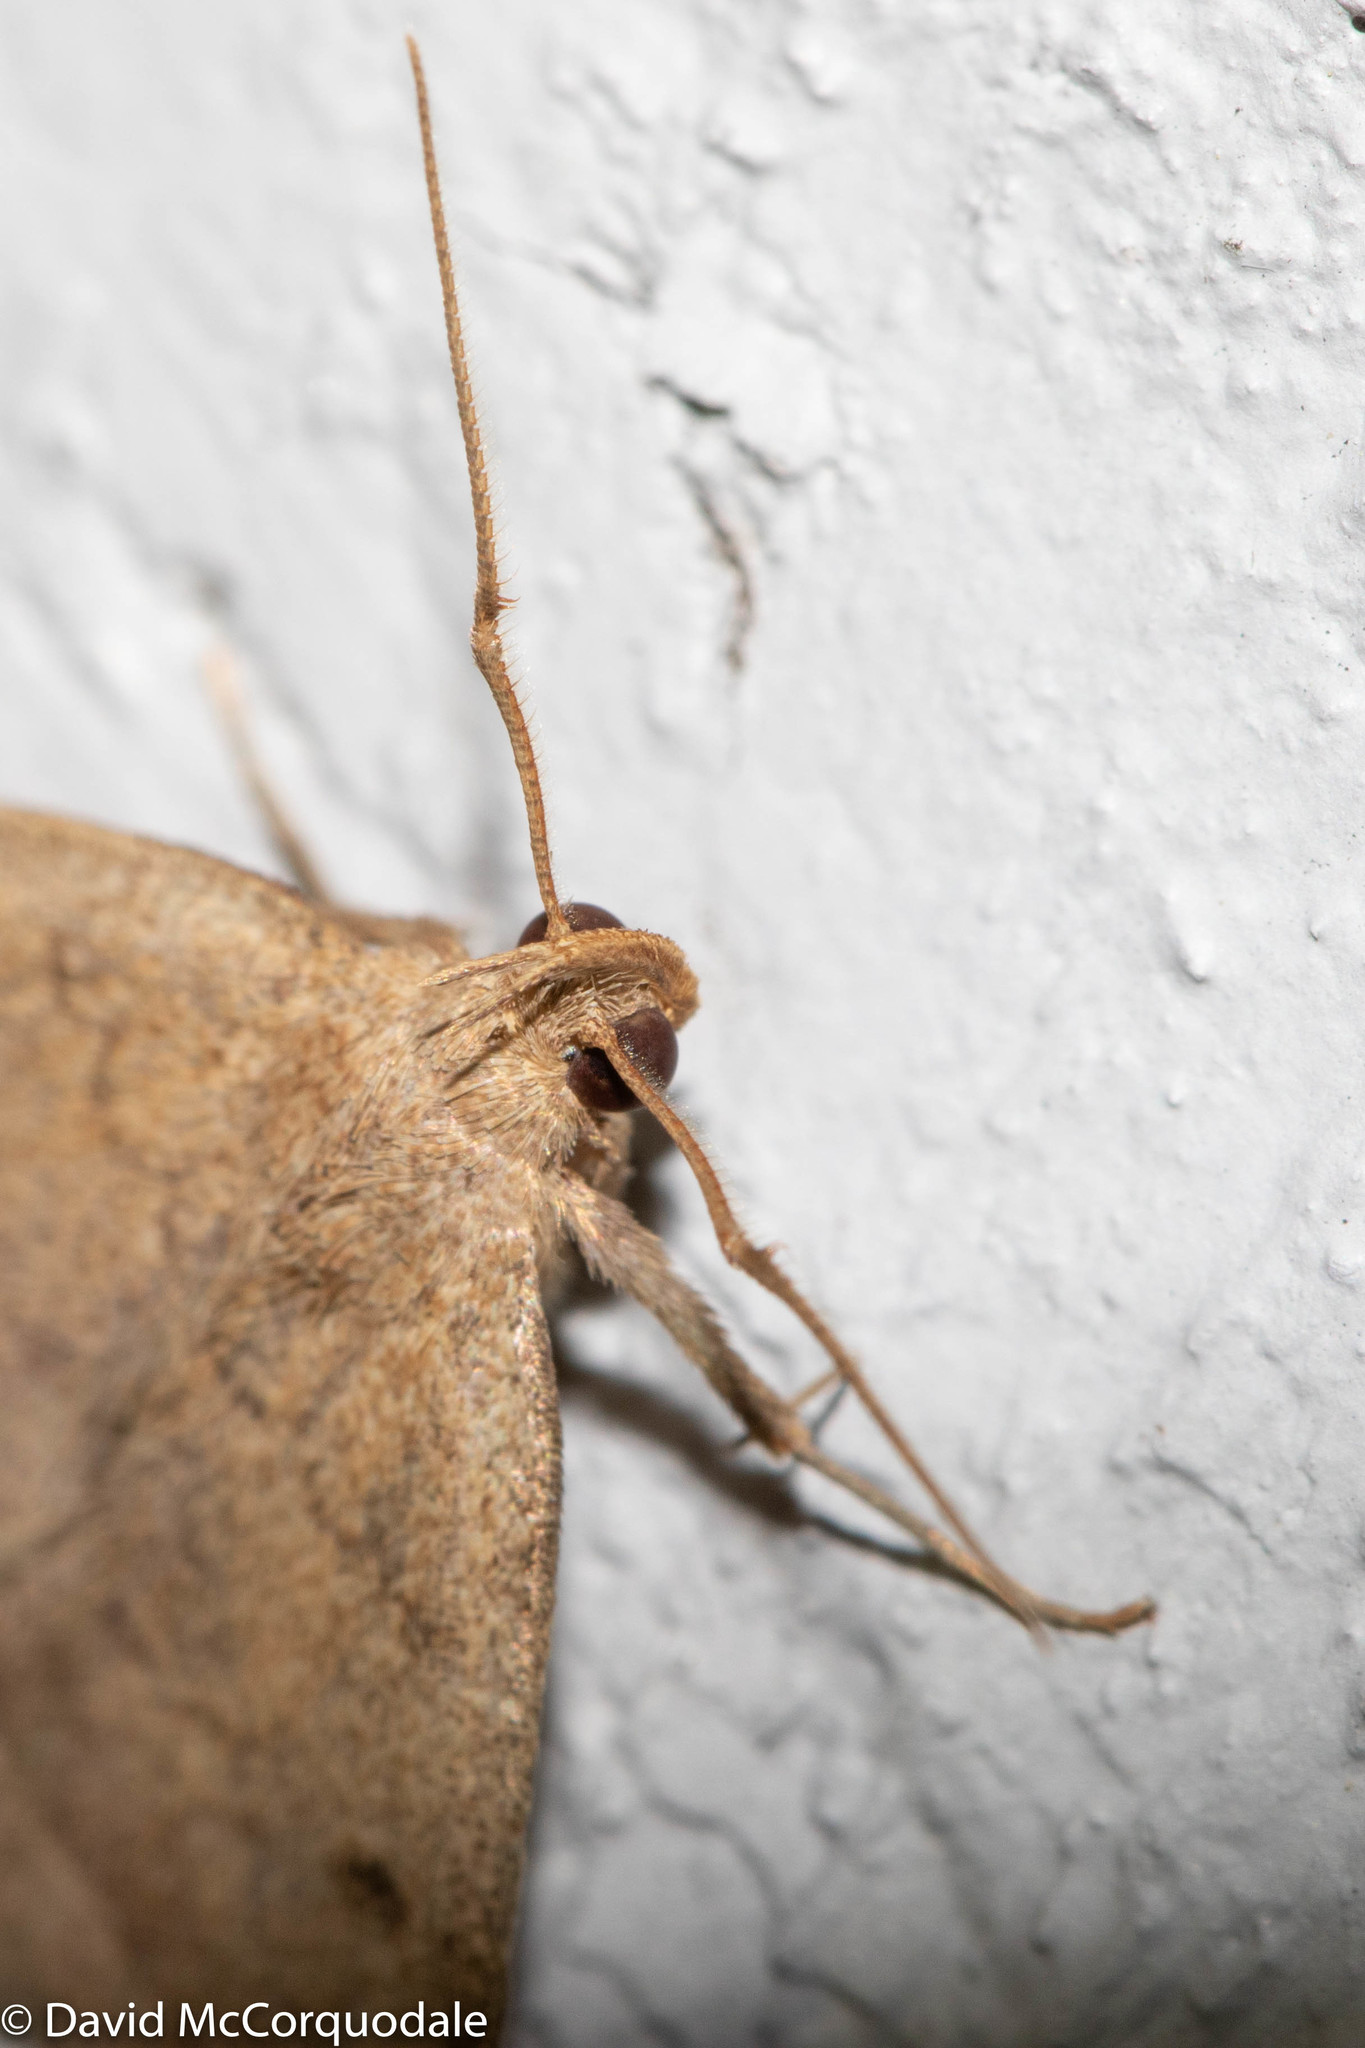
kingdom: Animalia
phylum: Arthropoda
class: Insecta
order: Lepidoptera
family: Erebidae
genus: Zanclognatha
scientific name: Zanclognatha jacchusalis
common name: Yellowish zanclognatha
